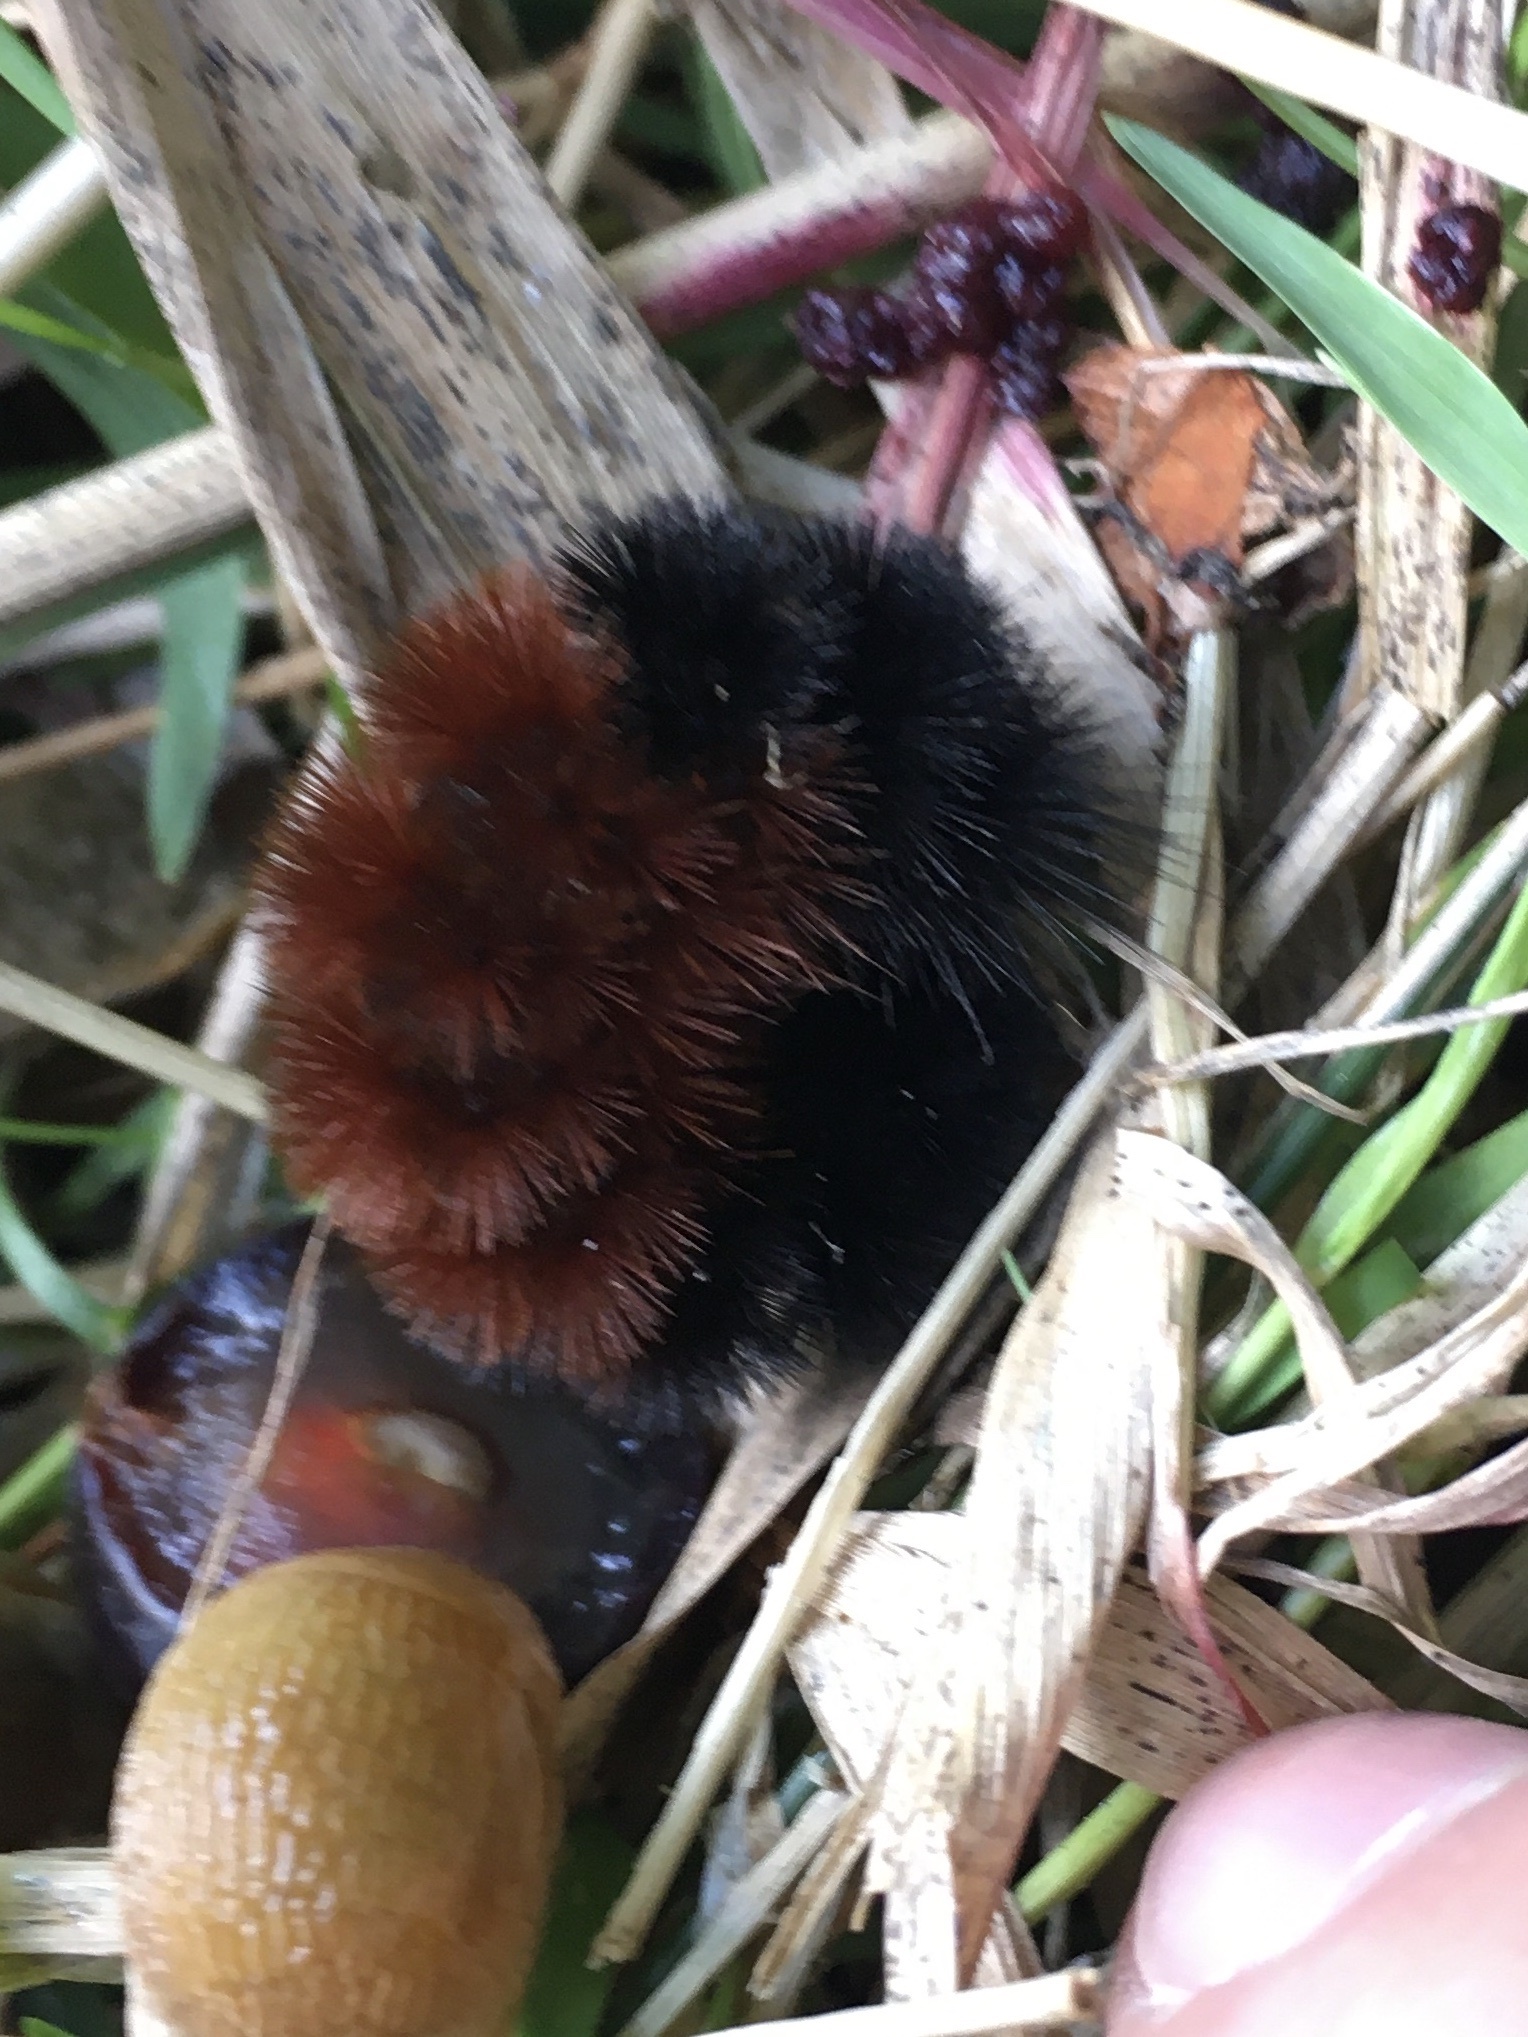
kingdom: Animalia
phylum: Arthropoda
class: Insecta
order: Lepidoptera
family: Erebidae
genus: Pyrrharctia
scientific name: Pyrrharctia isabella
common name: Isabella tiger moth
